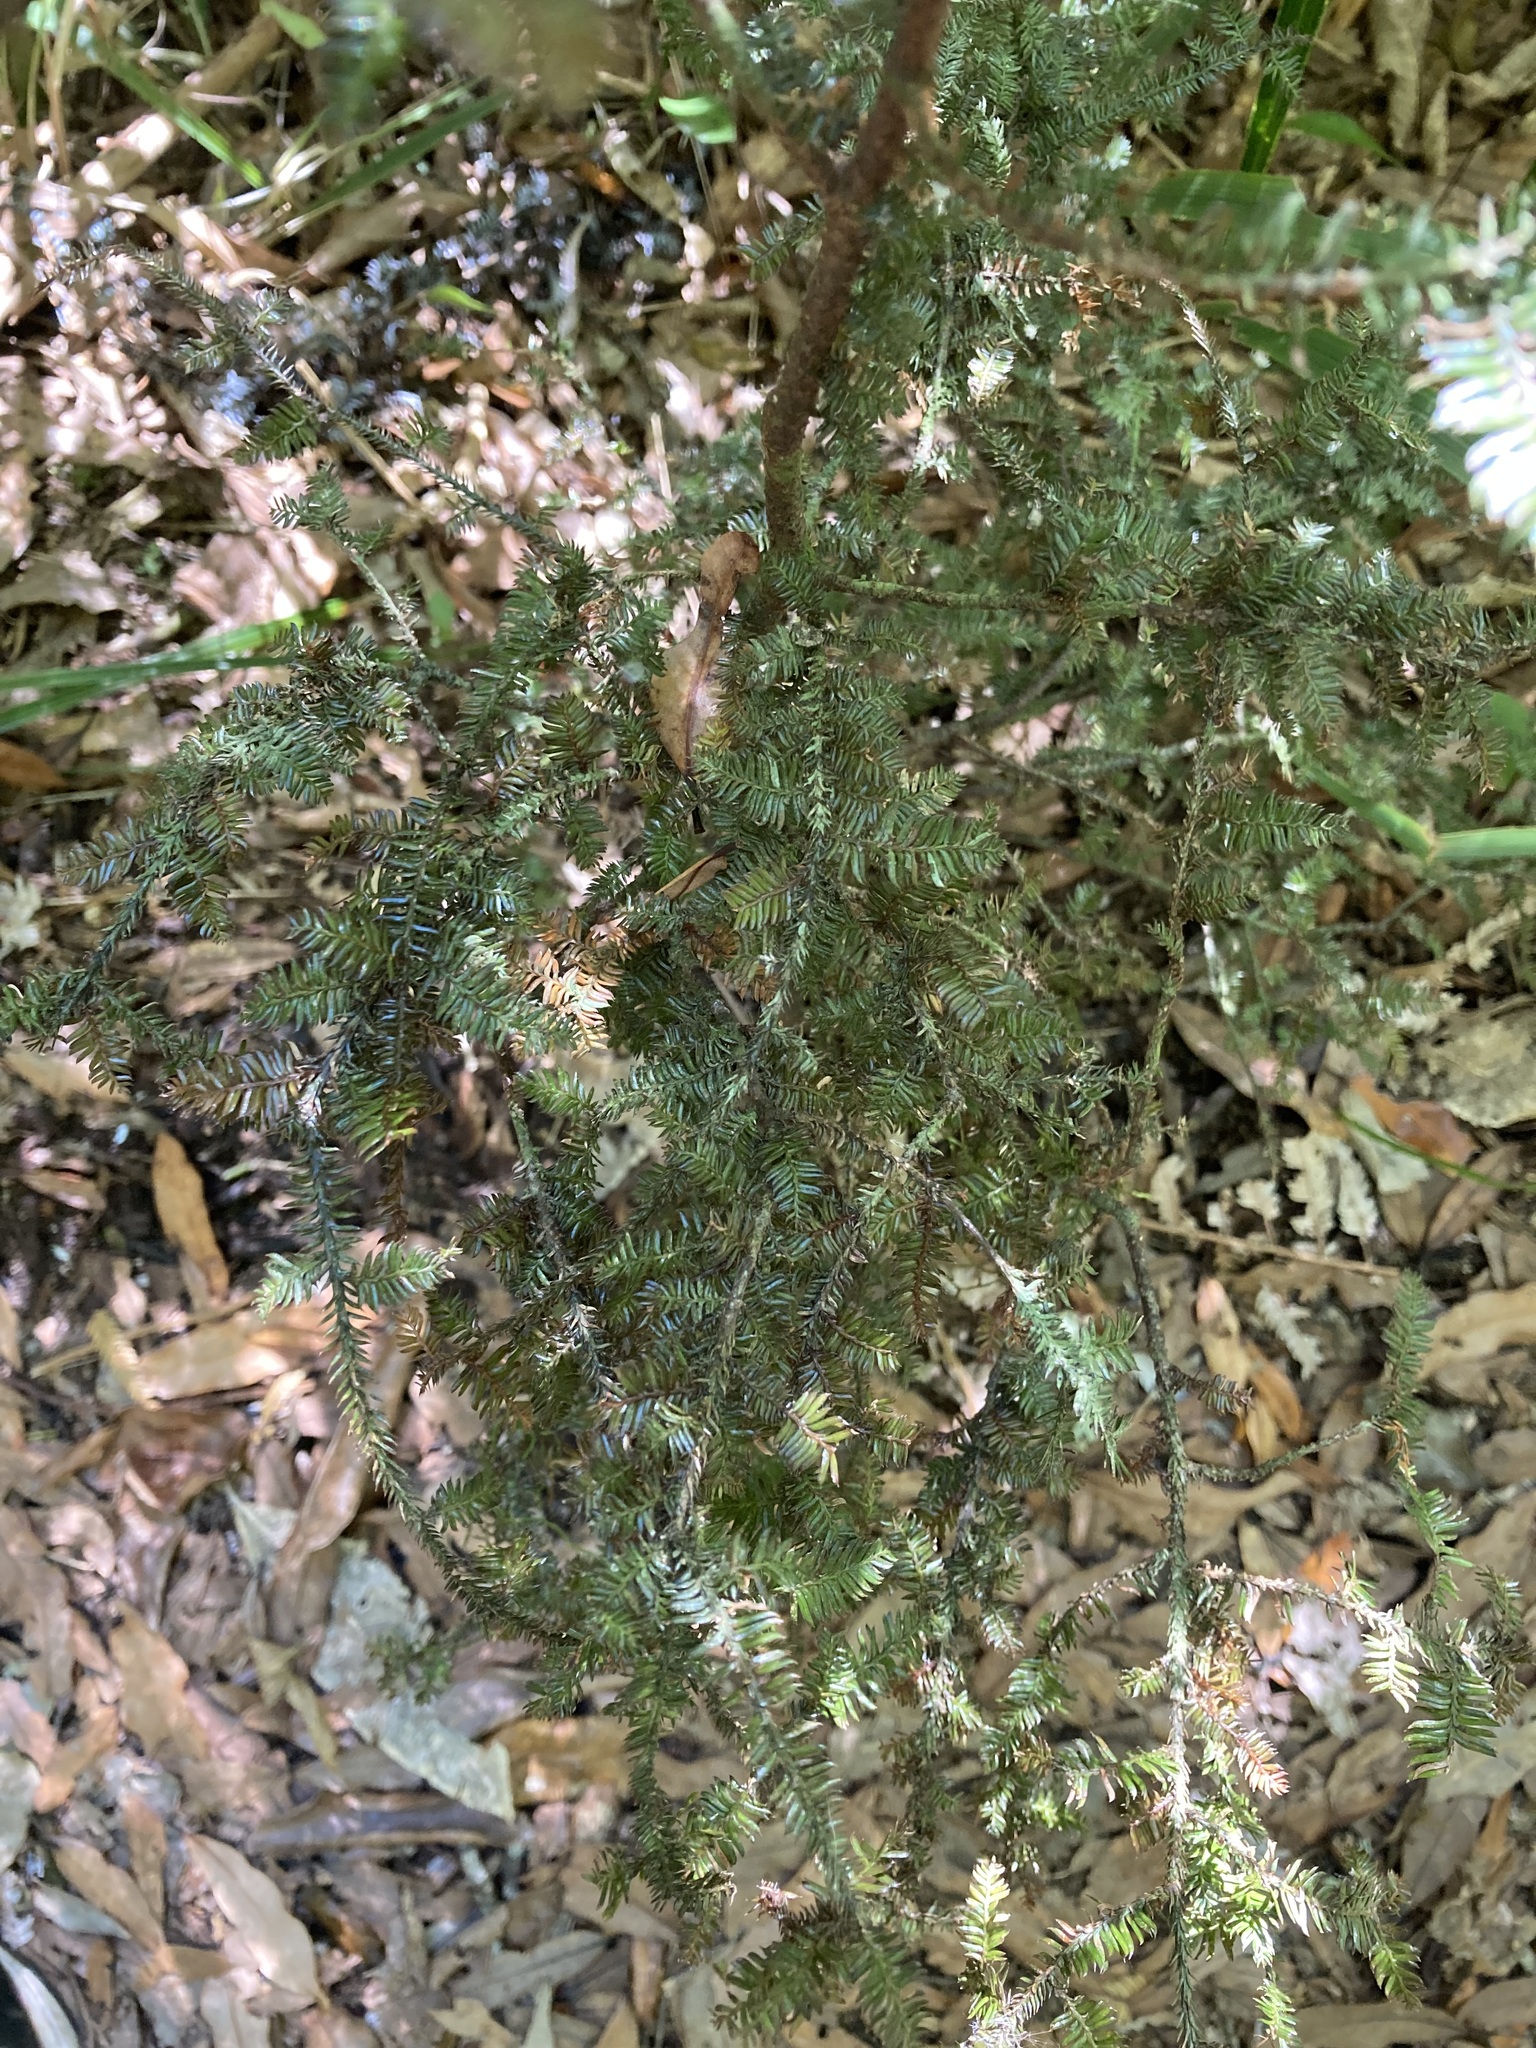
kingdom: Plantae
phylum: Tracheophyta
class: Pinopsida
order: Pinales
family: Podocarpaceae
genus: Dacrycarpus
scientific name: Dacrycarpus dacrydioides
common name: White pine
